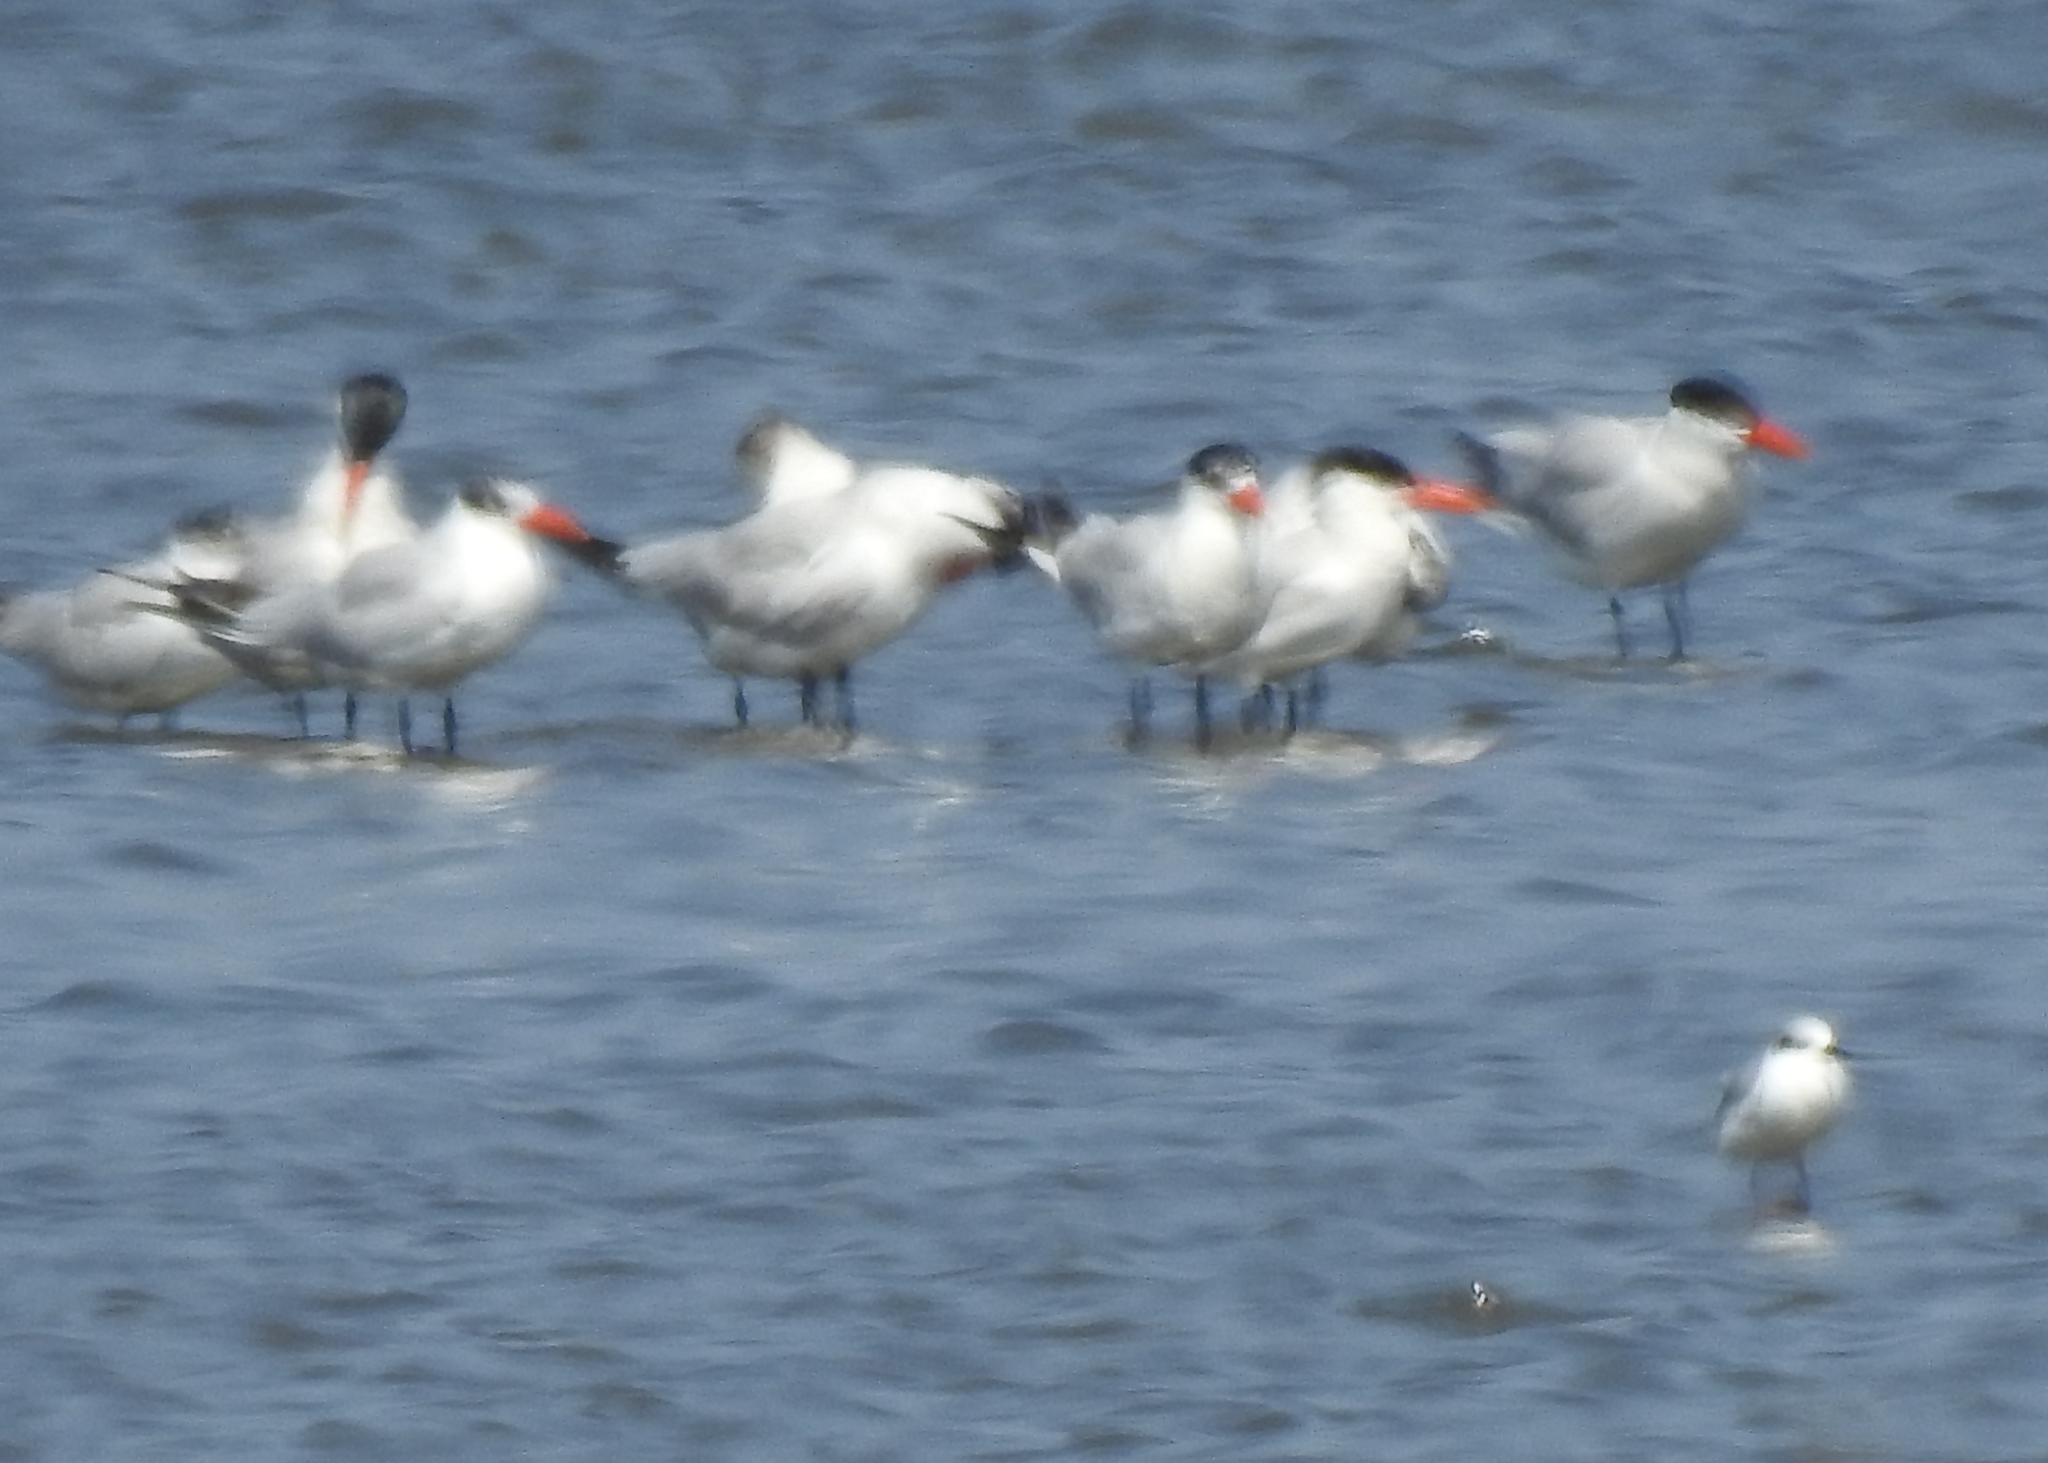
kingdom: Animalia
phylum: Chordata
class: Aves
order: Charadriiformes
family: Laridae
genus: Thalasseus
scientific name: Thalasseus maximus
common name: Royal tern
